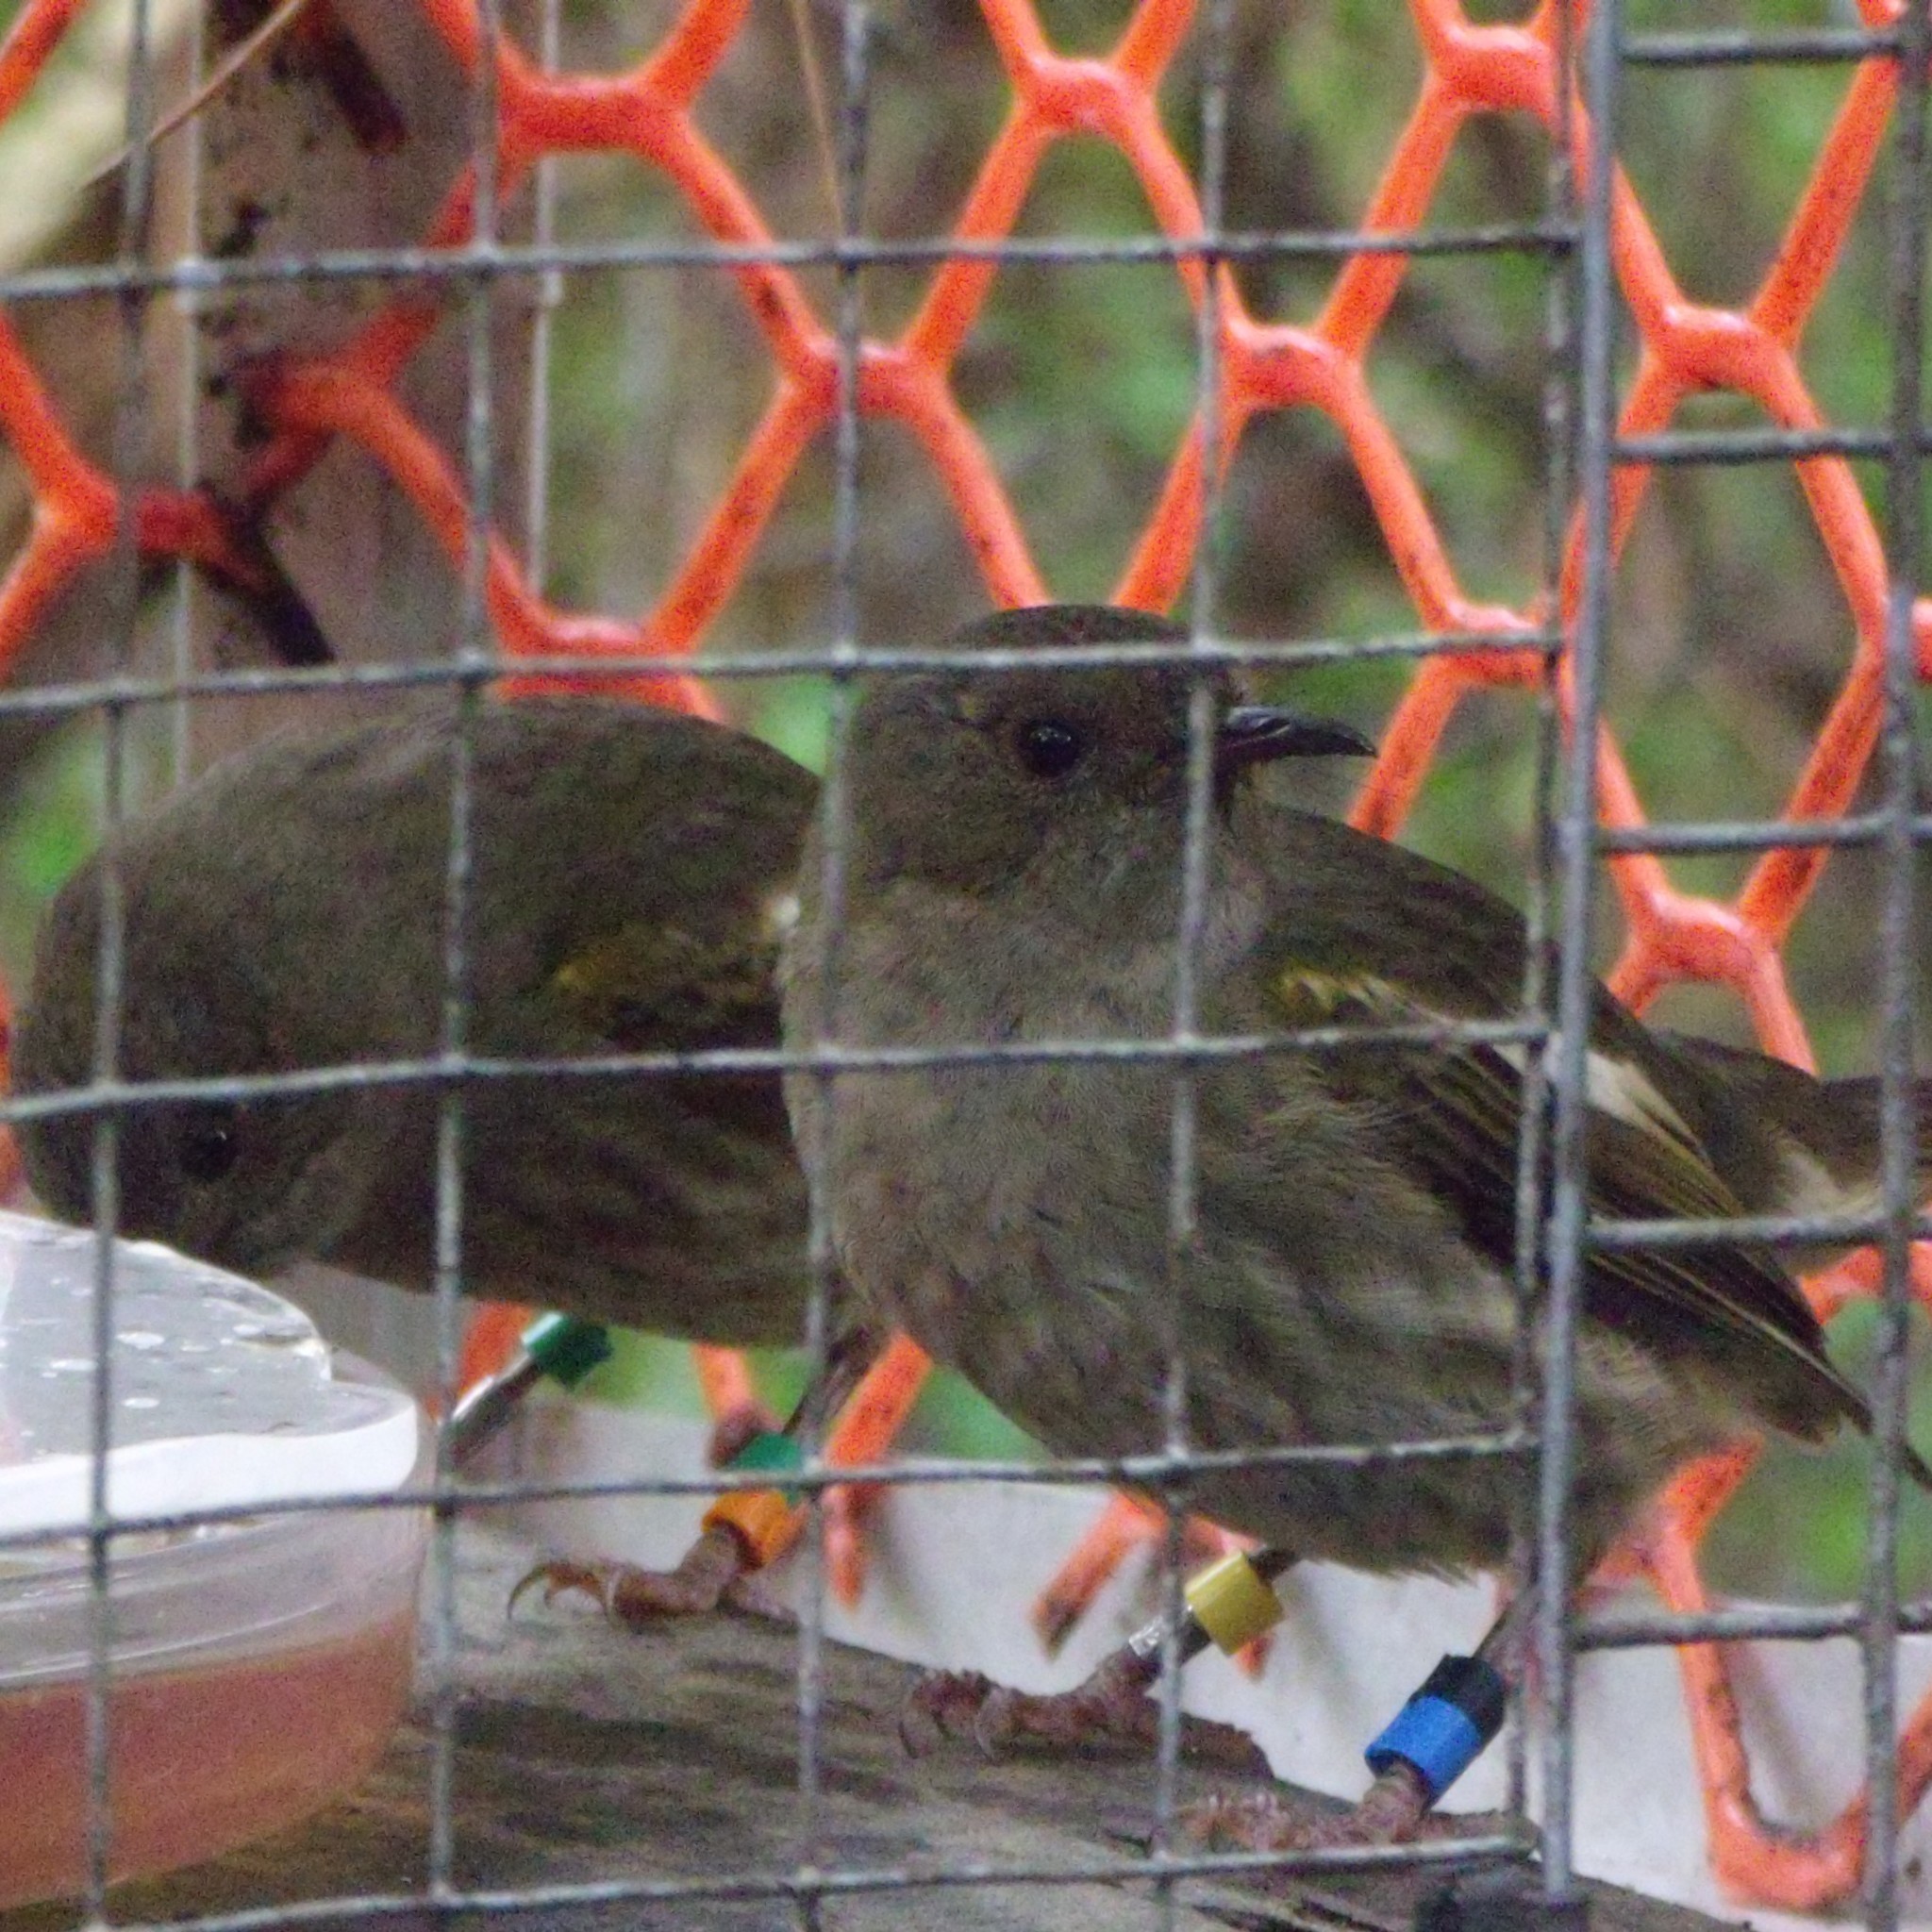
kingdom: Animalia
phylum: Chordata
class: Aves
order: Passeriformes
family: Notiomystidae
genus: Notiomystis
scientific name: Notiomystis cincta
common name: Stitchbird
